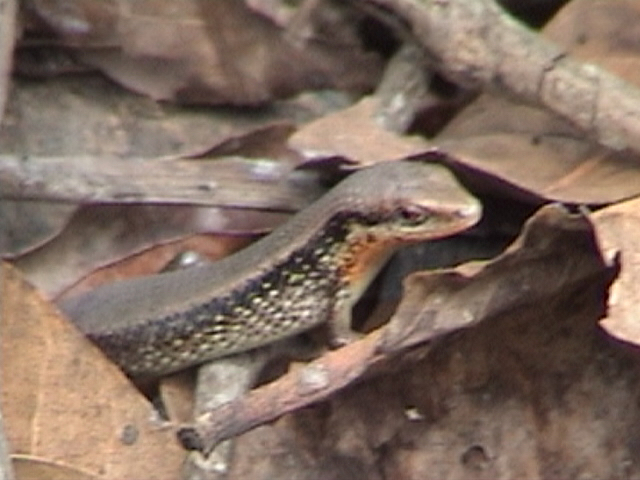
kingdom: Animalia
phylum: Chordata
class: Squamata
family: Scincidae
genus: Eutropis
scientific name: Eutropis macularia
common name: Bronze mabuya
